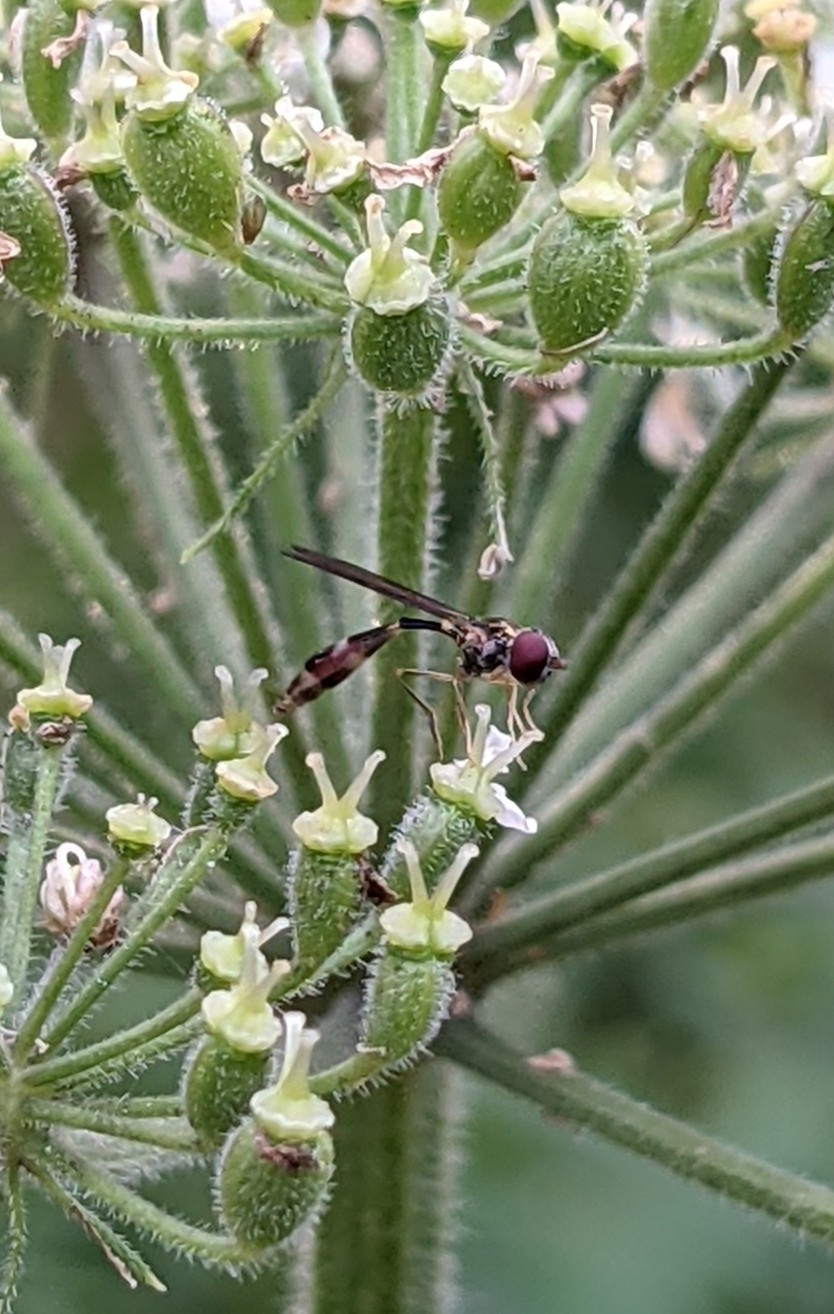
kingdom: Animalia
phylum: Arthropoda
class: Insecta
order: Diptera
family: Syrphidae
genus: Baccha
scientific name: Baccha elongata
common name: Common dainty
